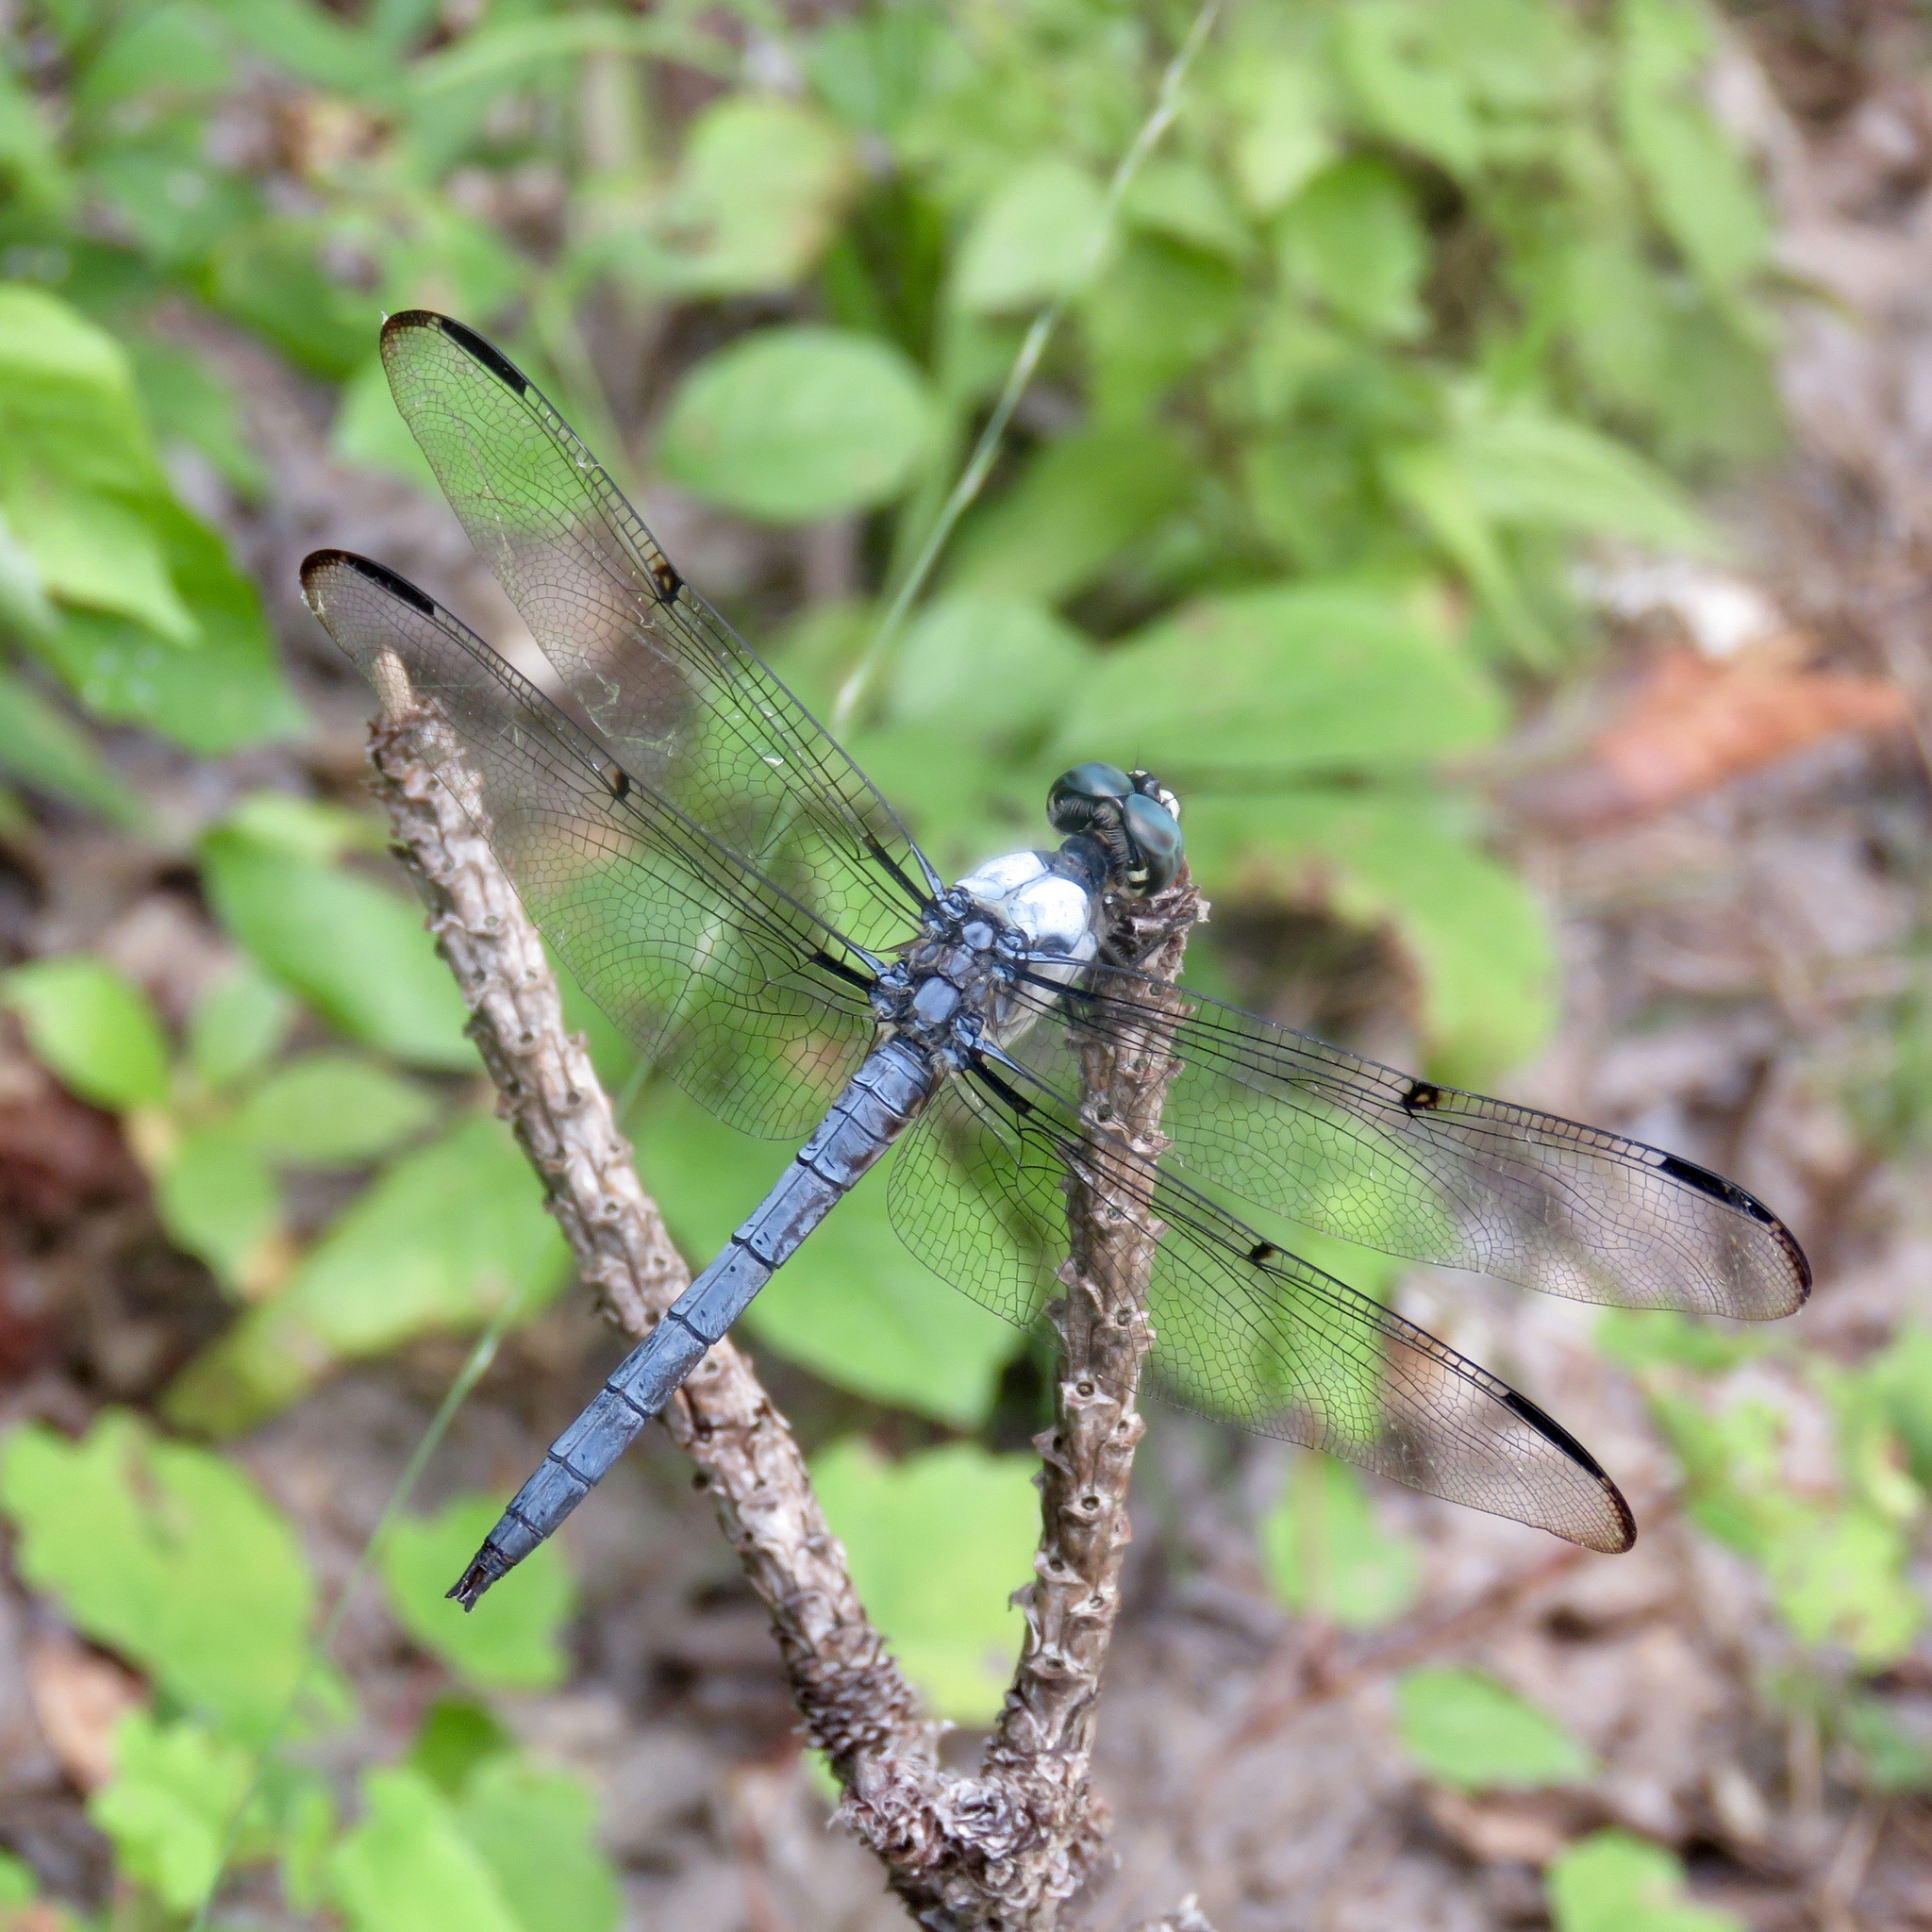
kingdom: Animalia
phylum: Arthropoda
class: Insecta
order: Odonata
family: Libellulidae
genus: Libellula
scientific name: Libellula vibrans
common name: Great blue skimmer
